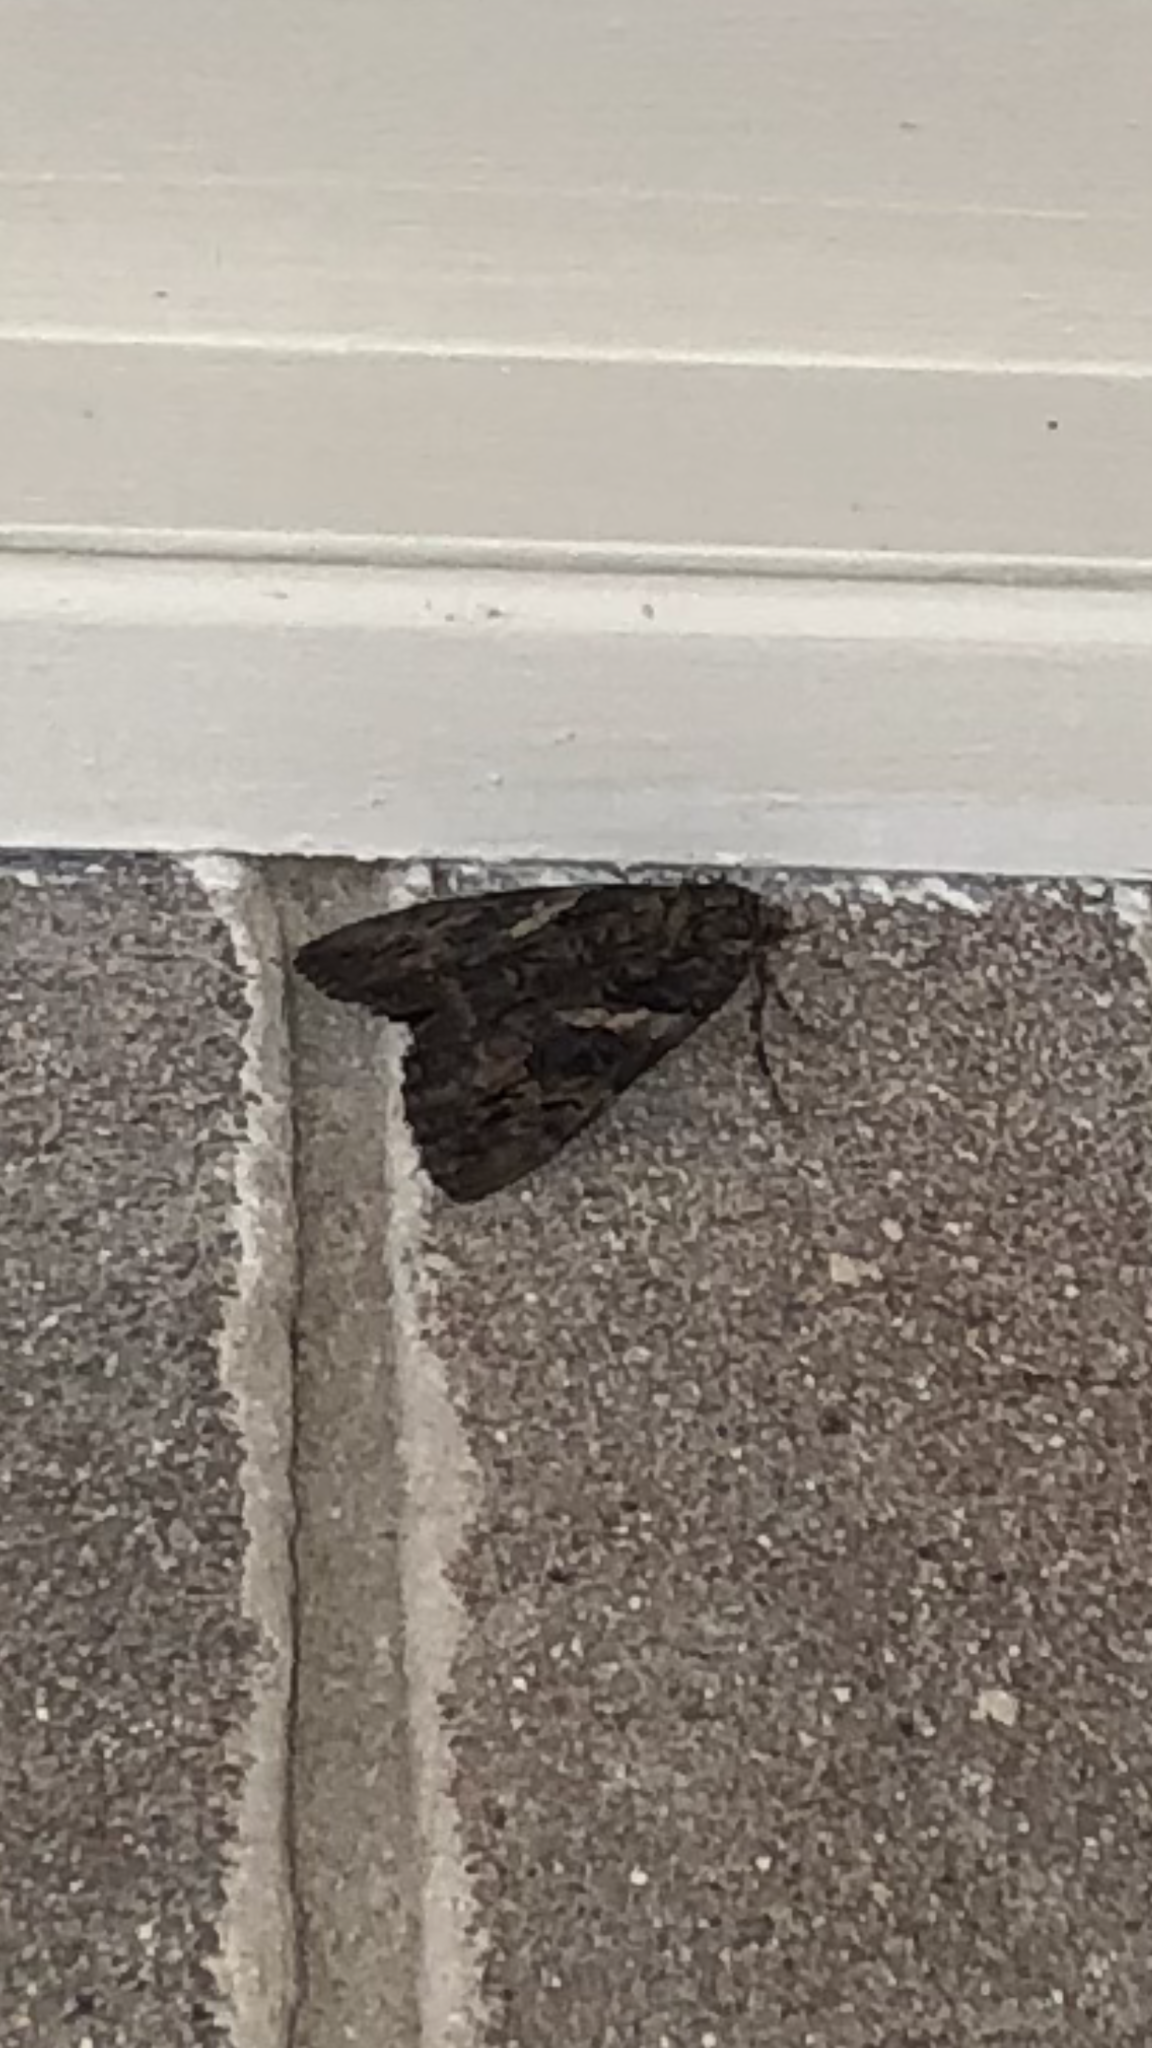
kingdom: Animalia
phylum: Arthropoda
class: Insecta
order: Lepidoptera
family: Erebidae
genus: Catocala
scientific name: Catocala piatrix
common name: The penitent underwing
